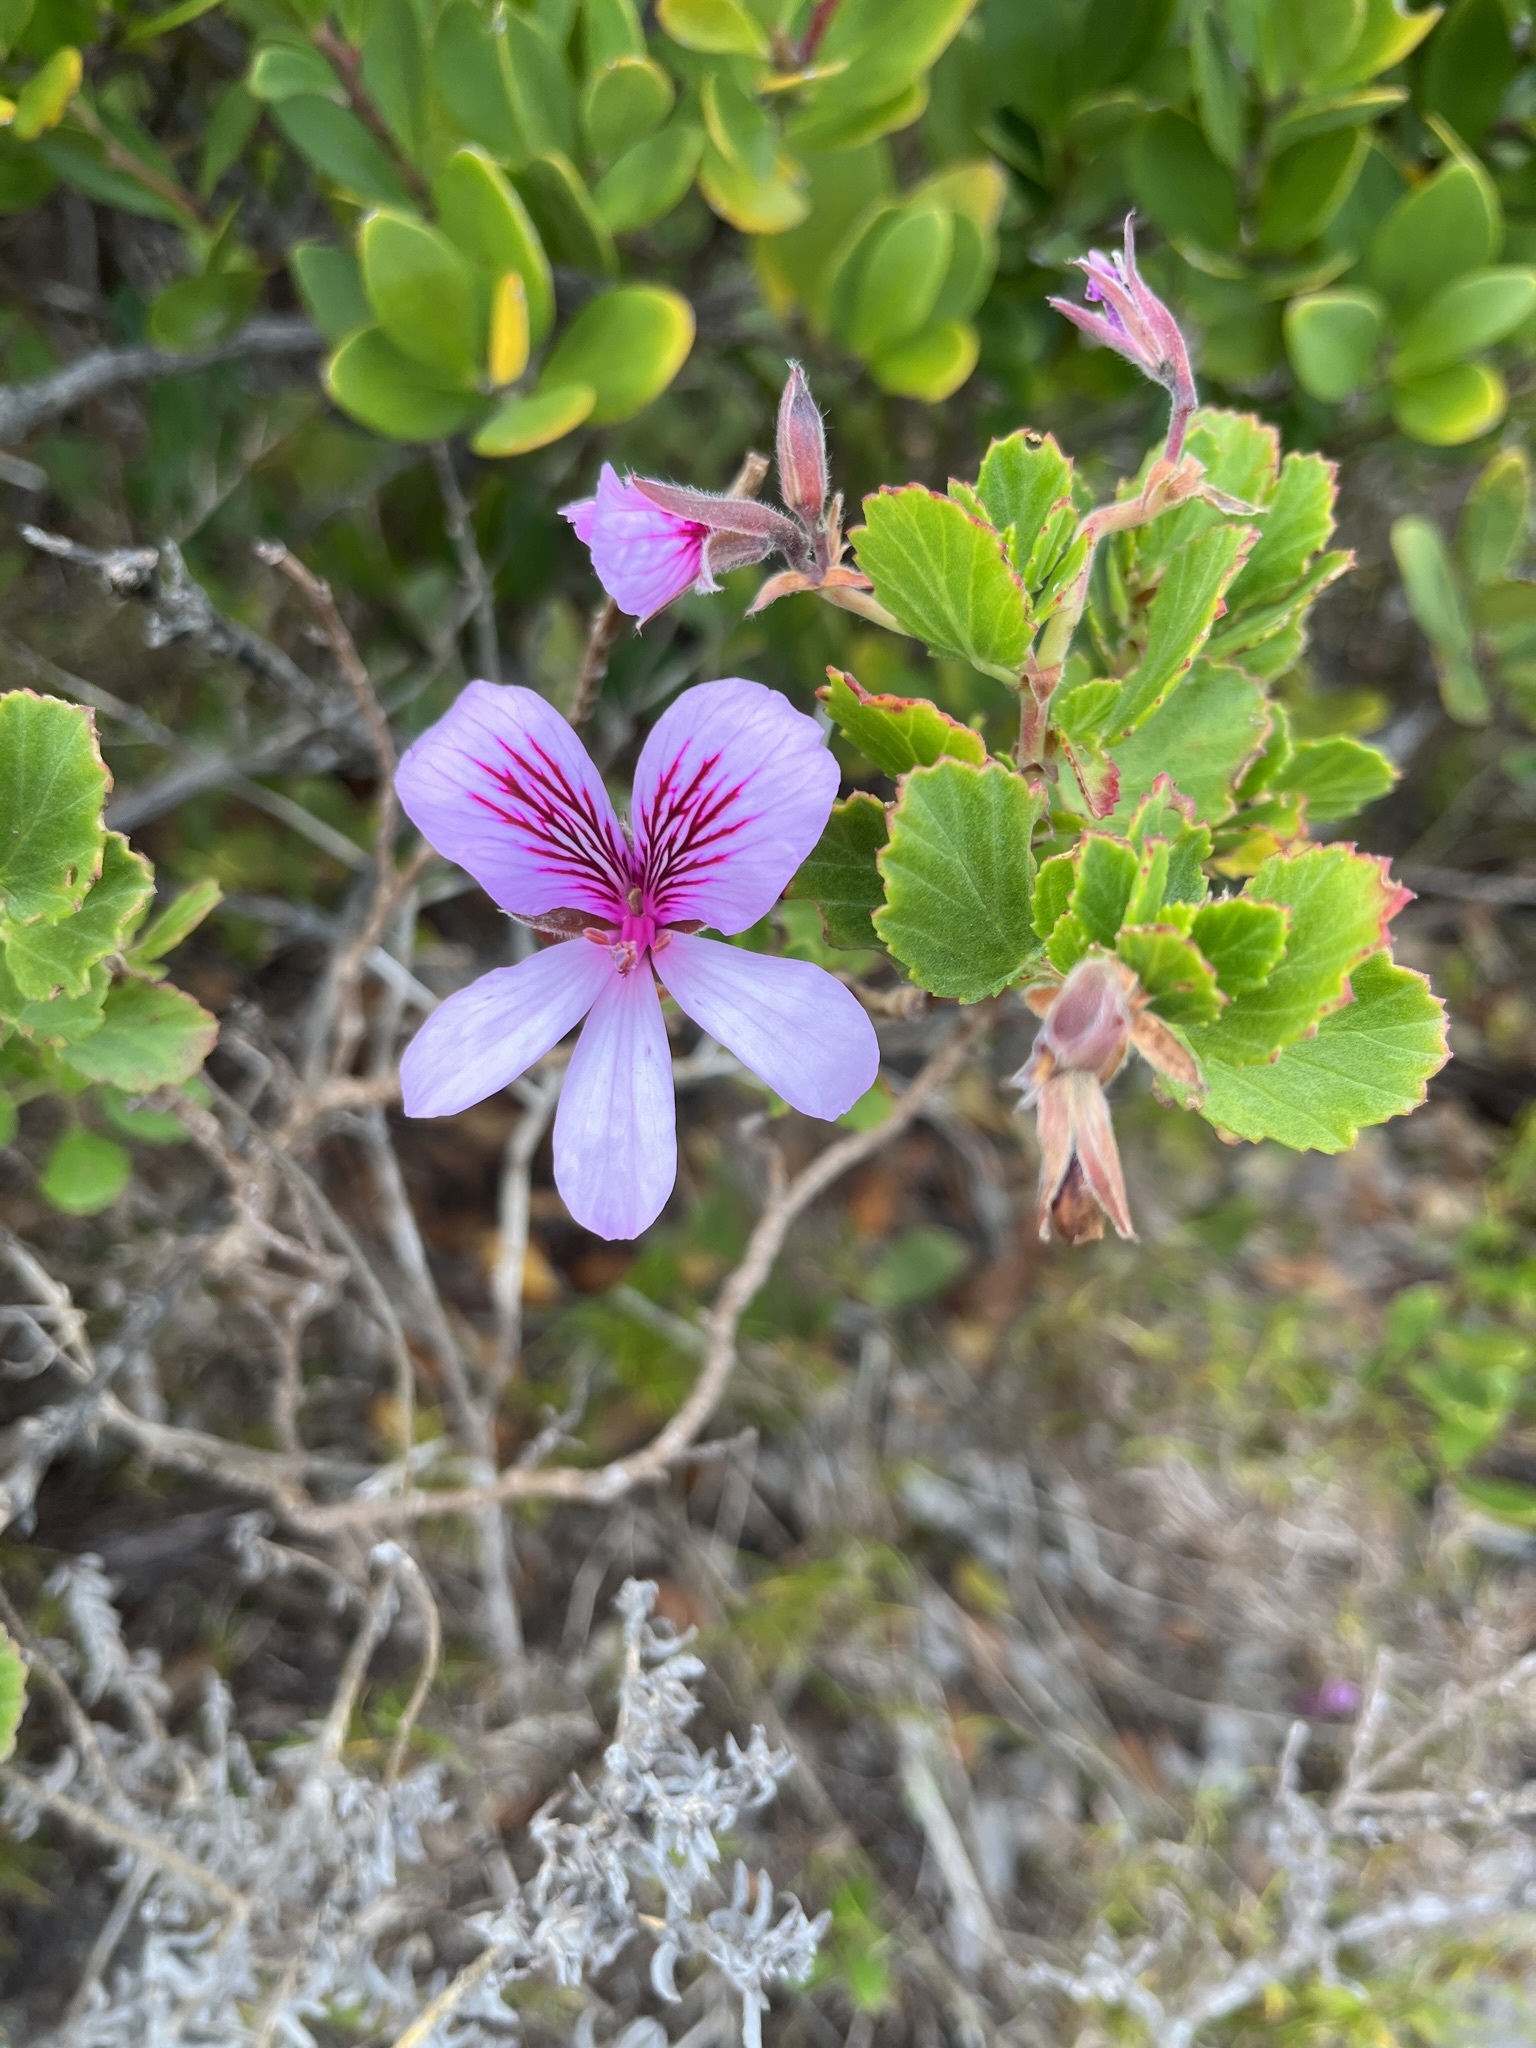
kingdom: Plantae
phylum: Tracheophyta
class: Magnoliopsida
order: Geraniales
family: Geraniaceae
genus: Pelargonium
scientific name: Pelargonium betulinum
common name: Birch-leaf pelargonium
